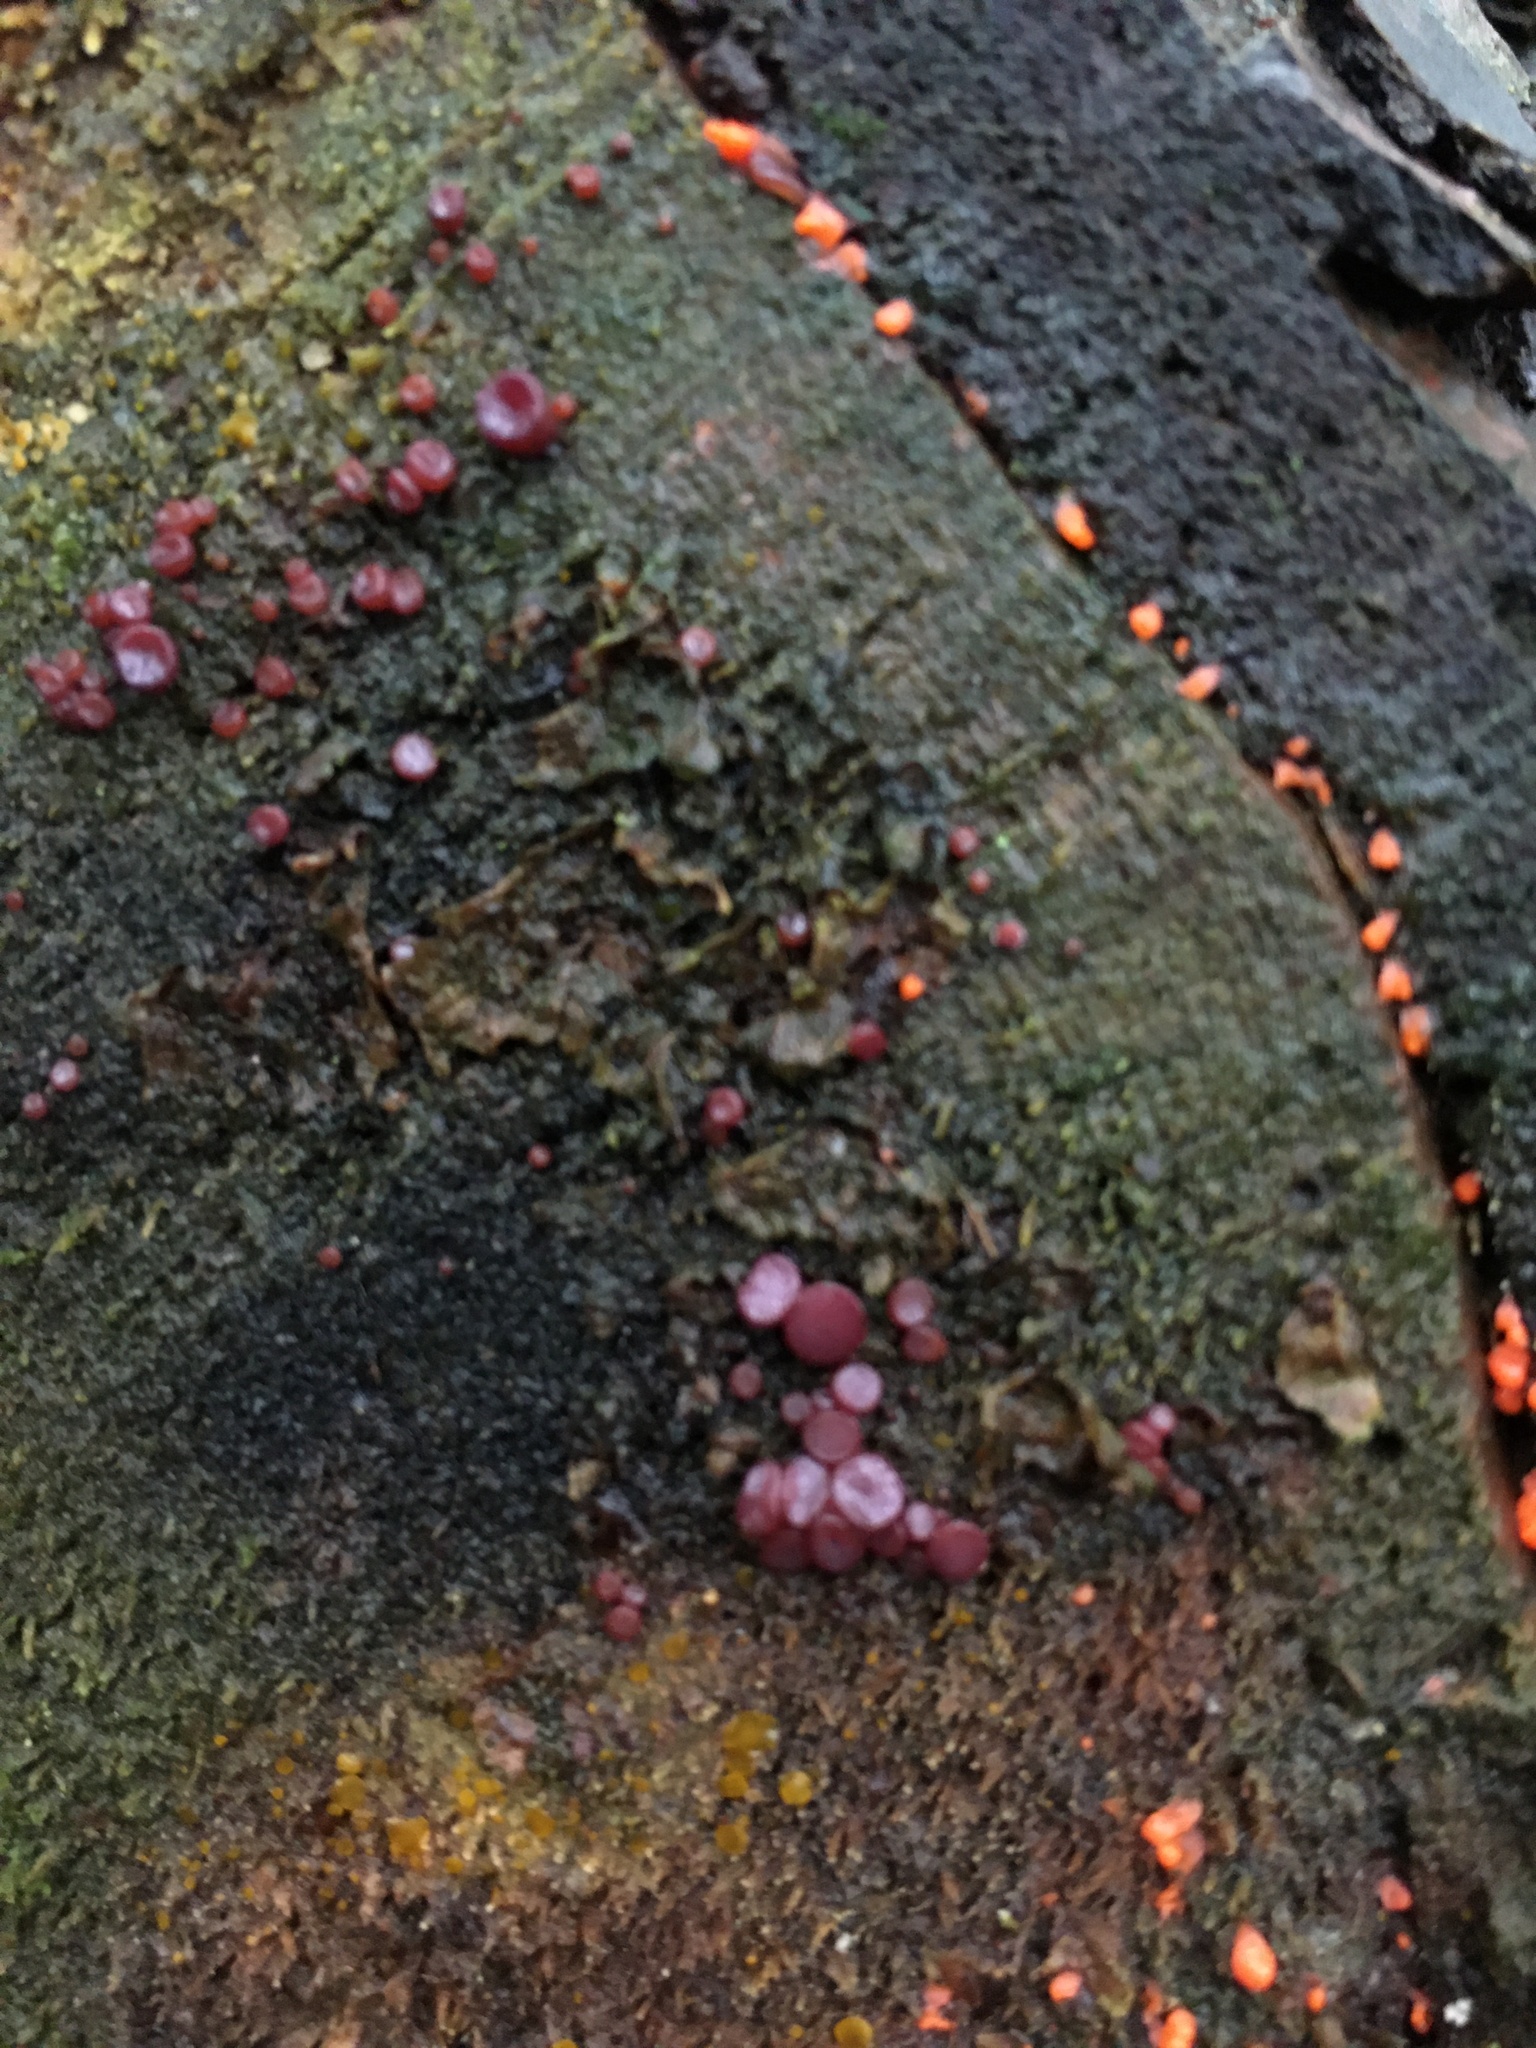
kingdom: Fungi
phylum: Ascomycota
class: Leotiomycetes
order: Helotiales
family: Gelatinodiscaceae
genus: Ascocoryne
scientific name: Ascocoryne sarcoides
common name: Purple jellydisc
